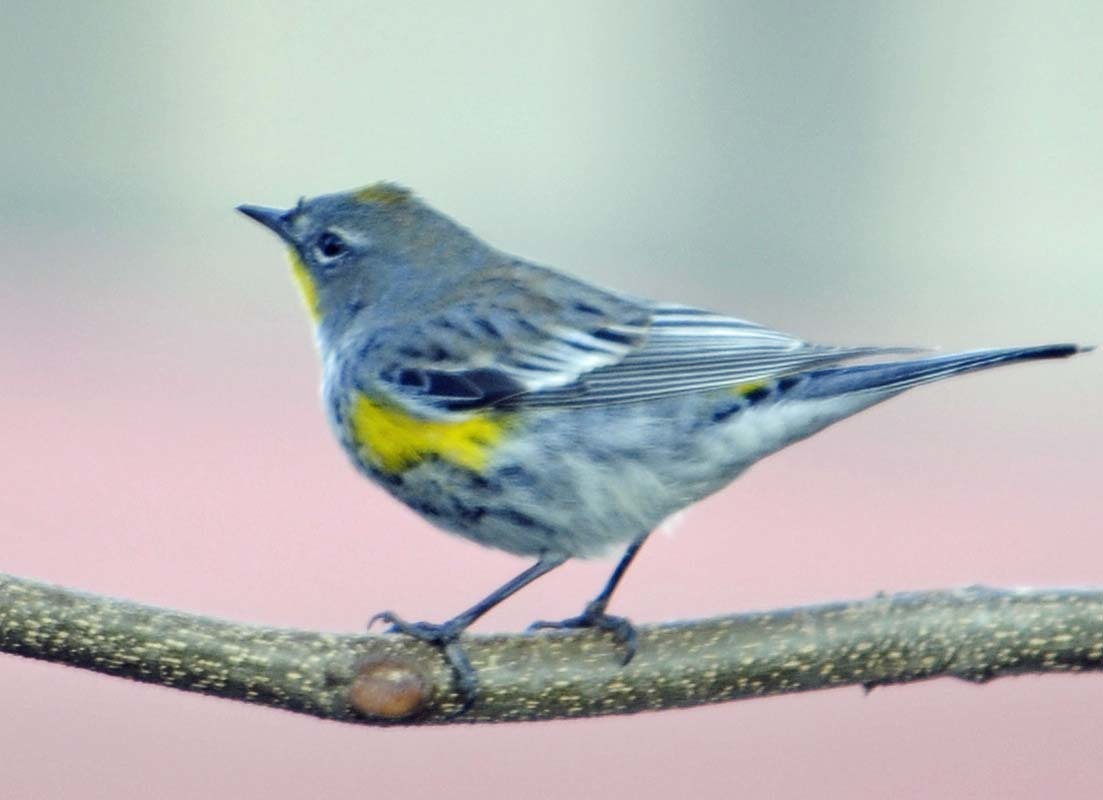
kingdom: Animalia
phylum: Chordata
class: Aves
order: Passeriformes
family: Parulidae
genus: Setophaga
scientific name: Setophaga auduboni
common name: Audubon's warbler
